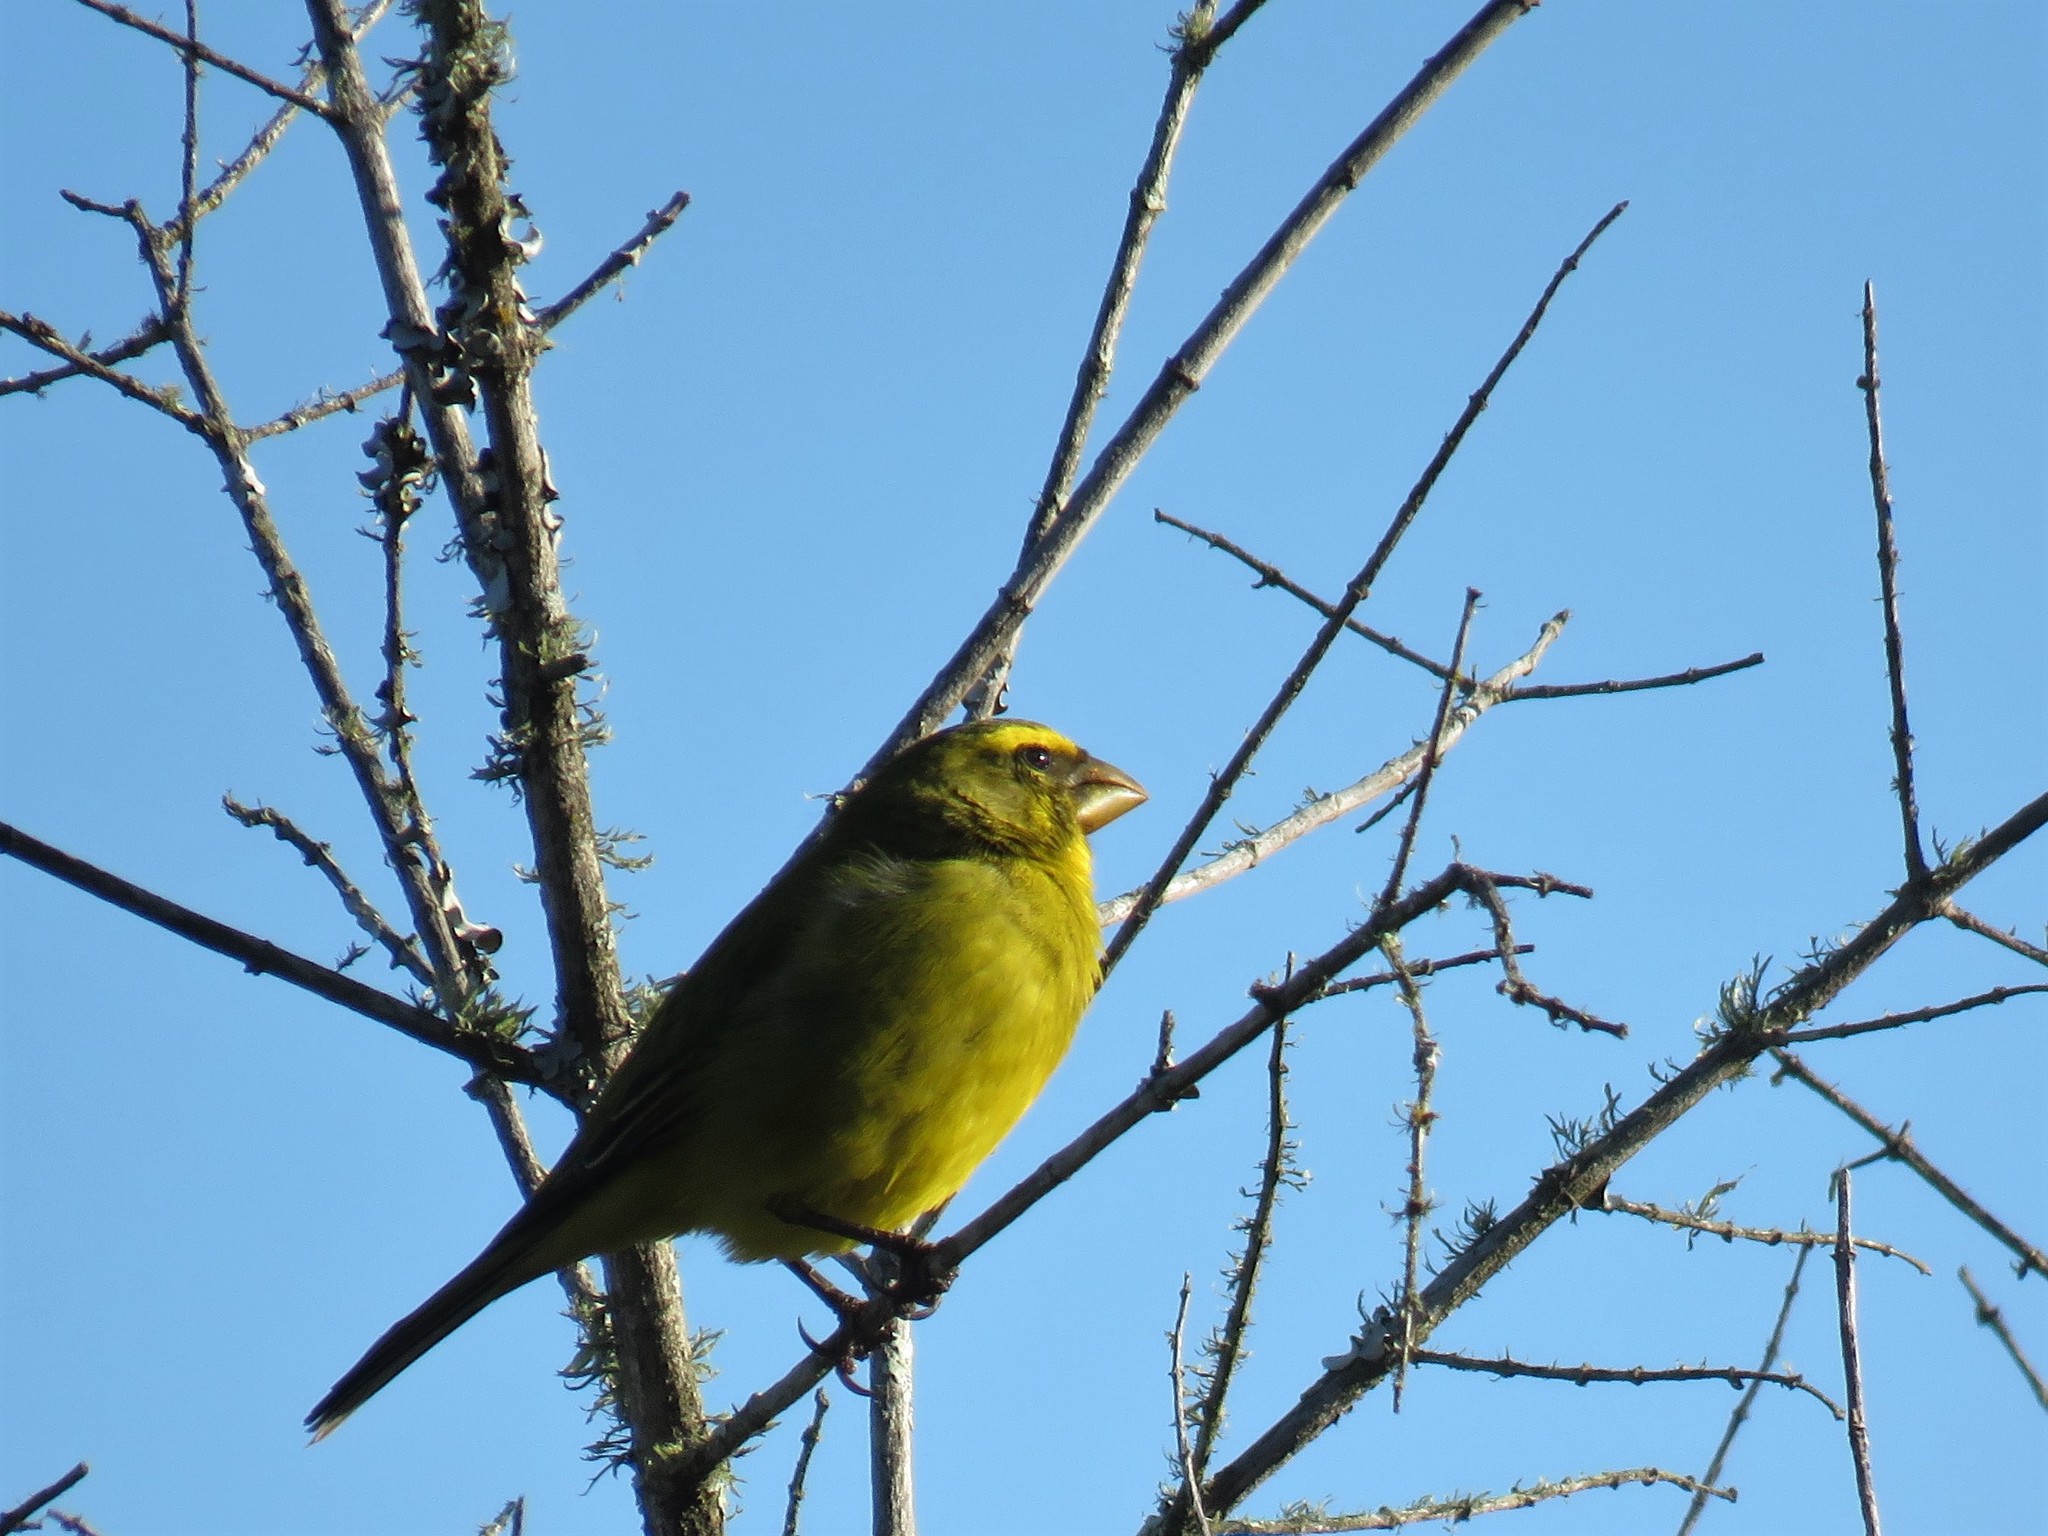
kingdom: Animalia
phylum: Chordata
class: Aves
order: Passeriformes
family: Fringillidae
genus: Crithagra
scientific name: Crithagra sulphurata
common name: Brimstone canary
